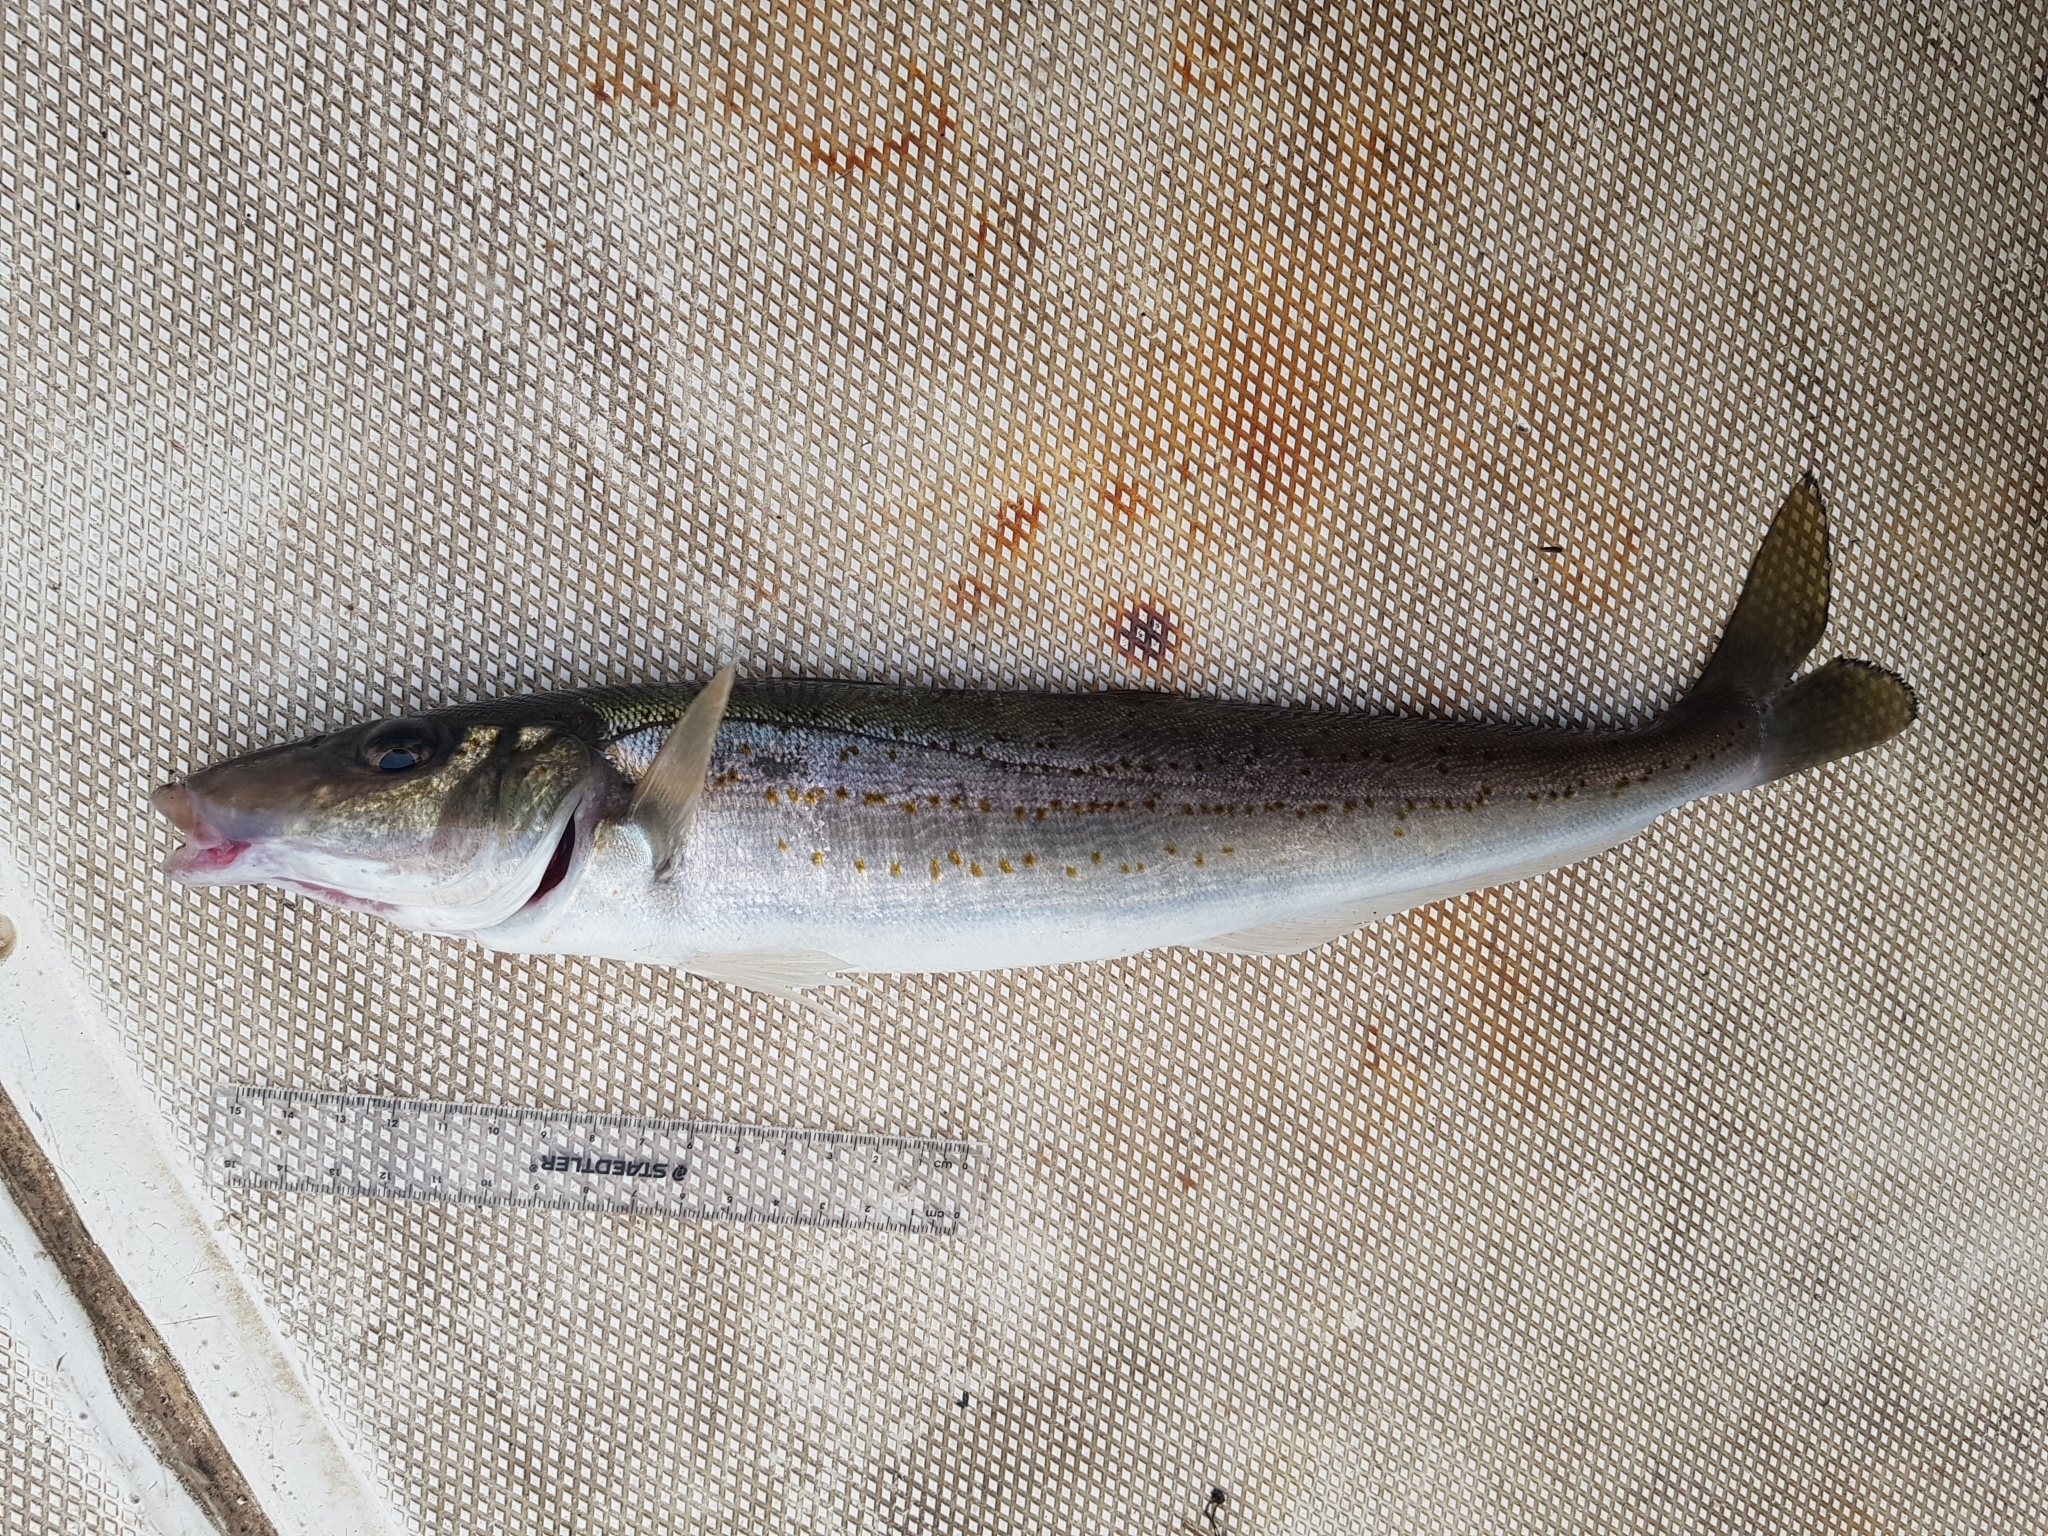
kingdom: Animalia
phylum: Chordata
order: Perciformes
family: Sillaginidae
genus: Sillaginodes
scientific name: Sillaginodes punctatus
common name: King george whiting
